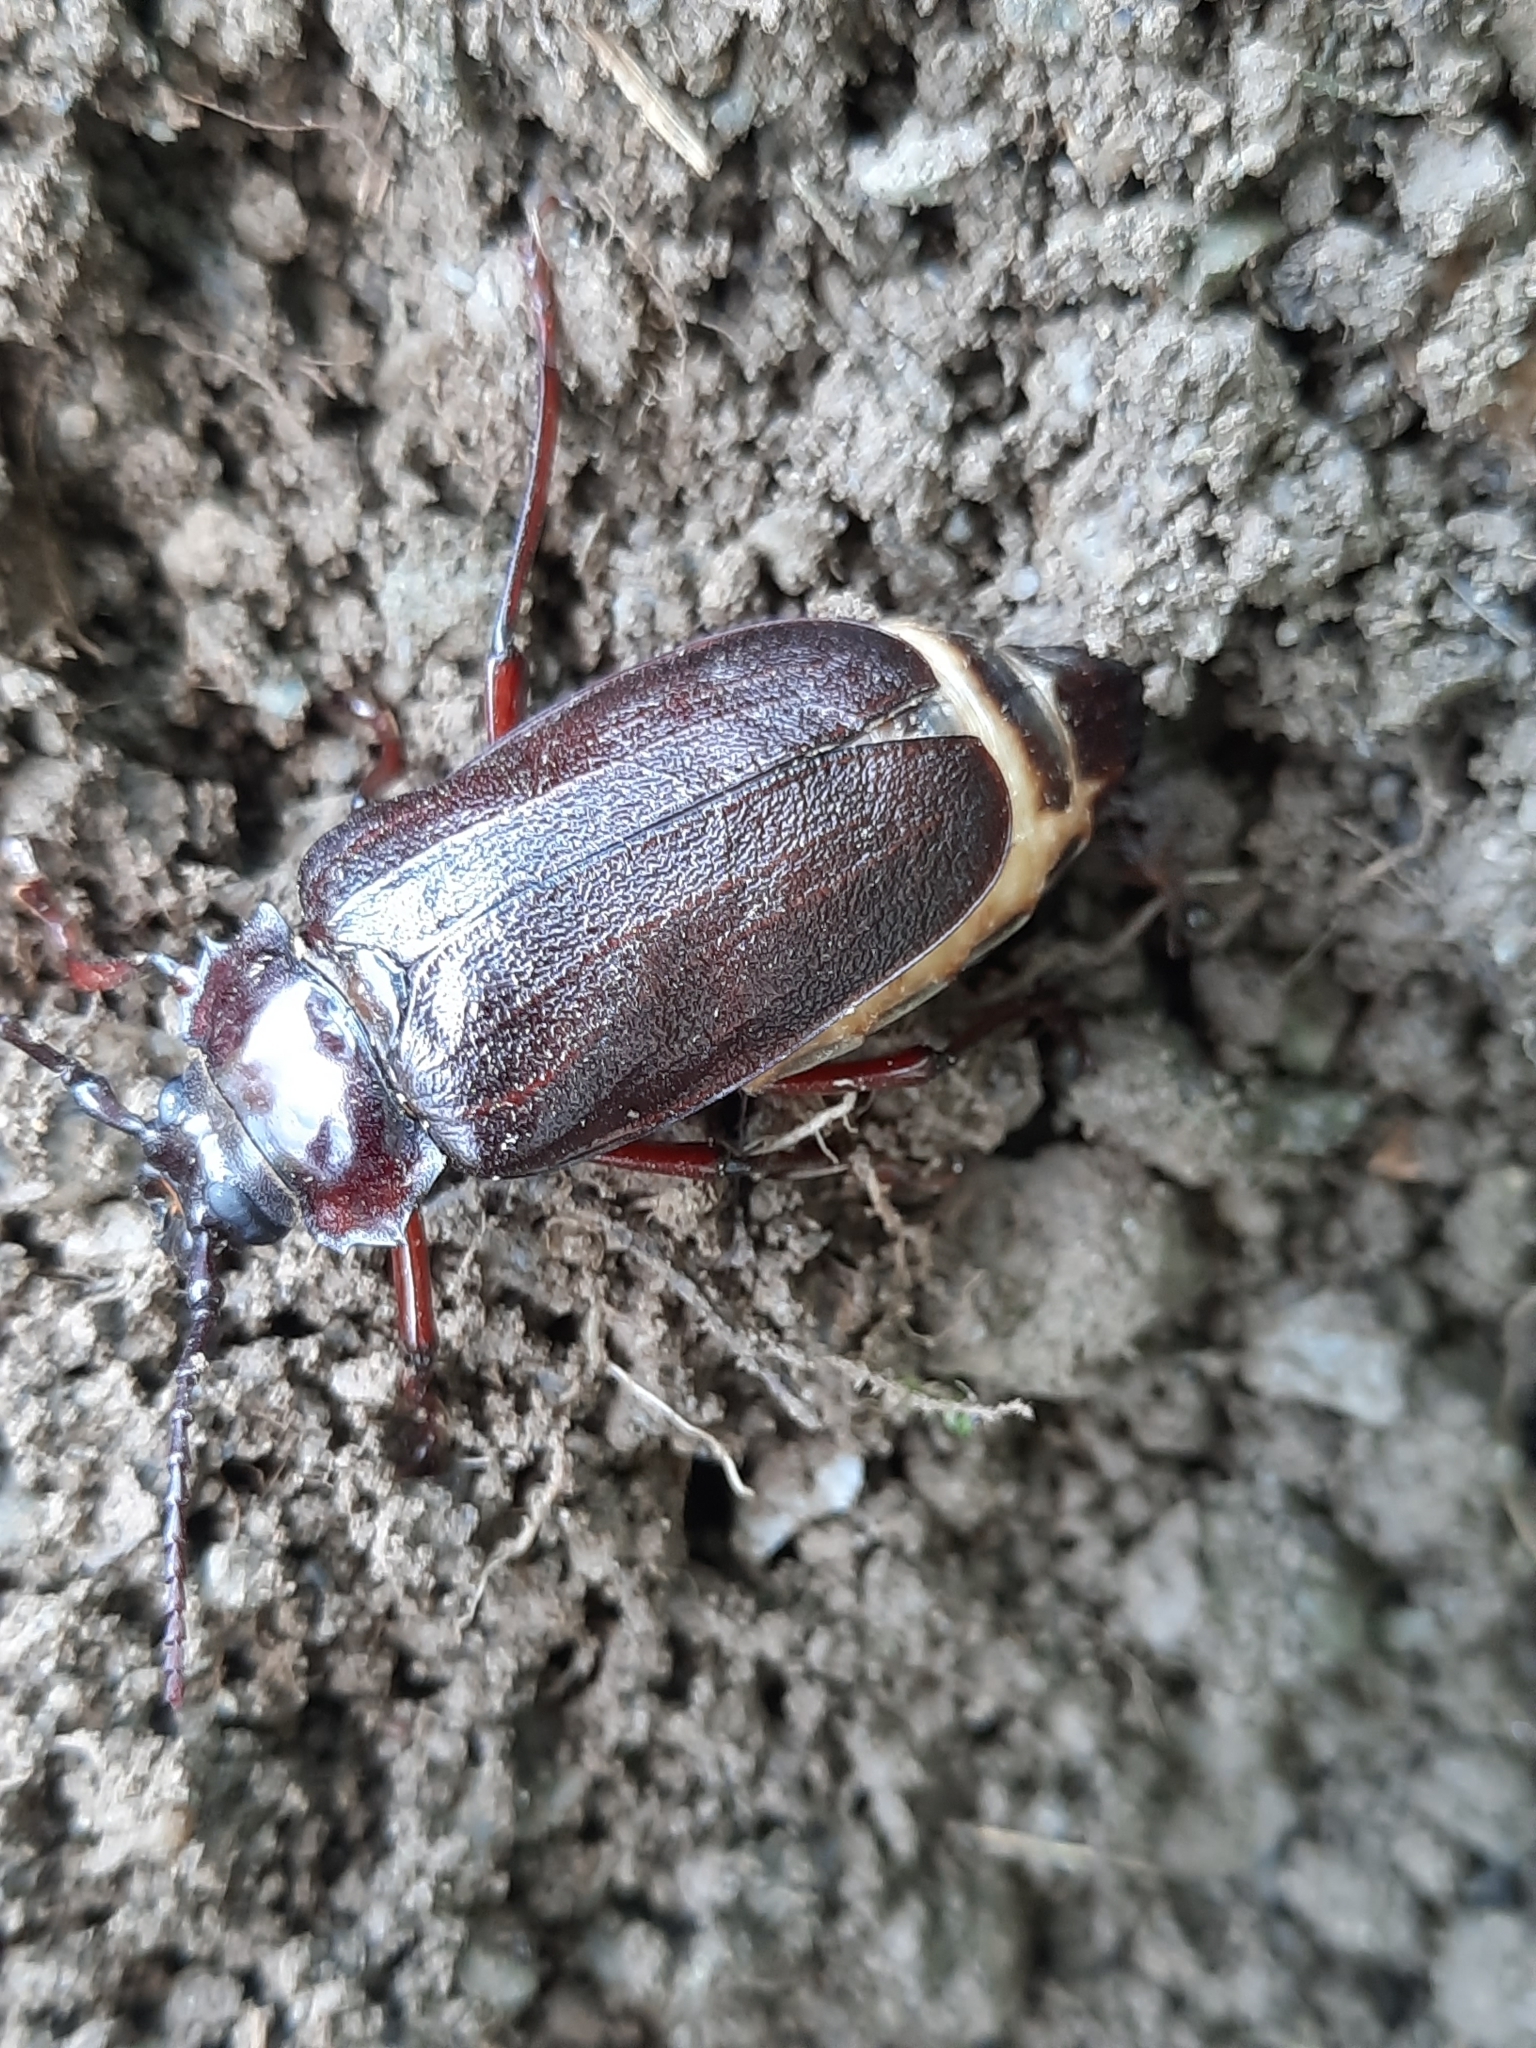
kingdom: Animalia
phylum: Arthropoda
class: Insecta
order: Coleoptera
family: Cerambycidae
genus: Prionus
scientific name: Prionus laticollis
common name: Broad necked prionus
